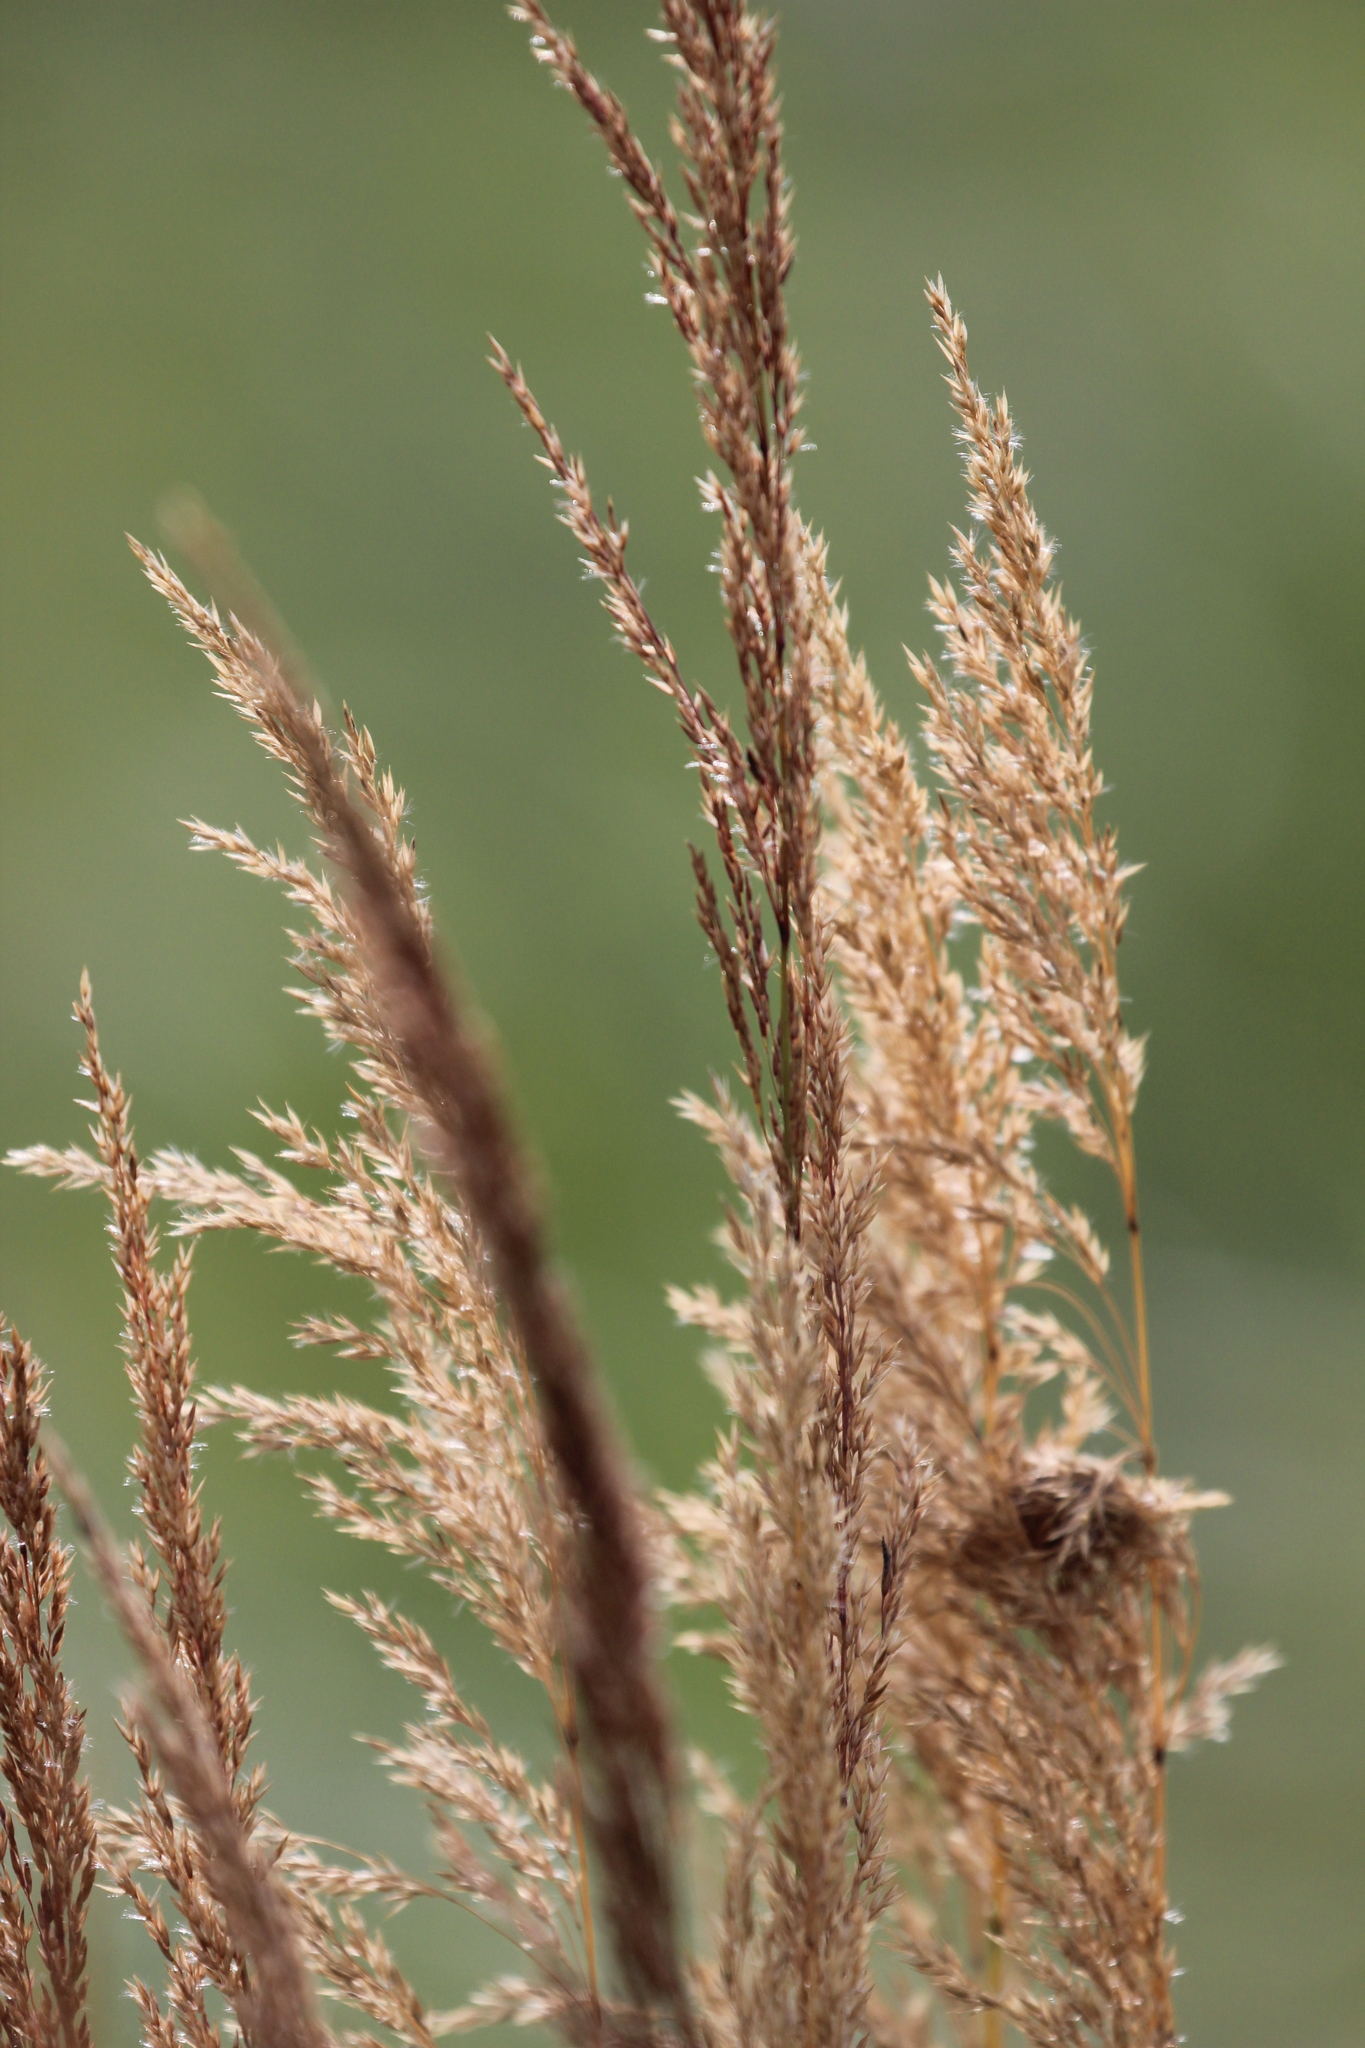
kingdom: Plantae
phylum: Tracheophyta
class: Liliopsida
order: Poales
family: Poaceae
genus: Calamagrostis
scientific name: Calamagrostis canadensis
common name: Canada bluejoint
